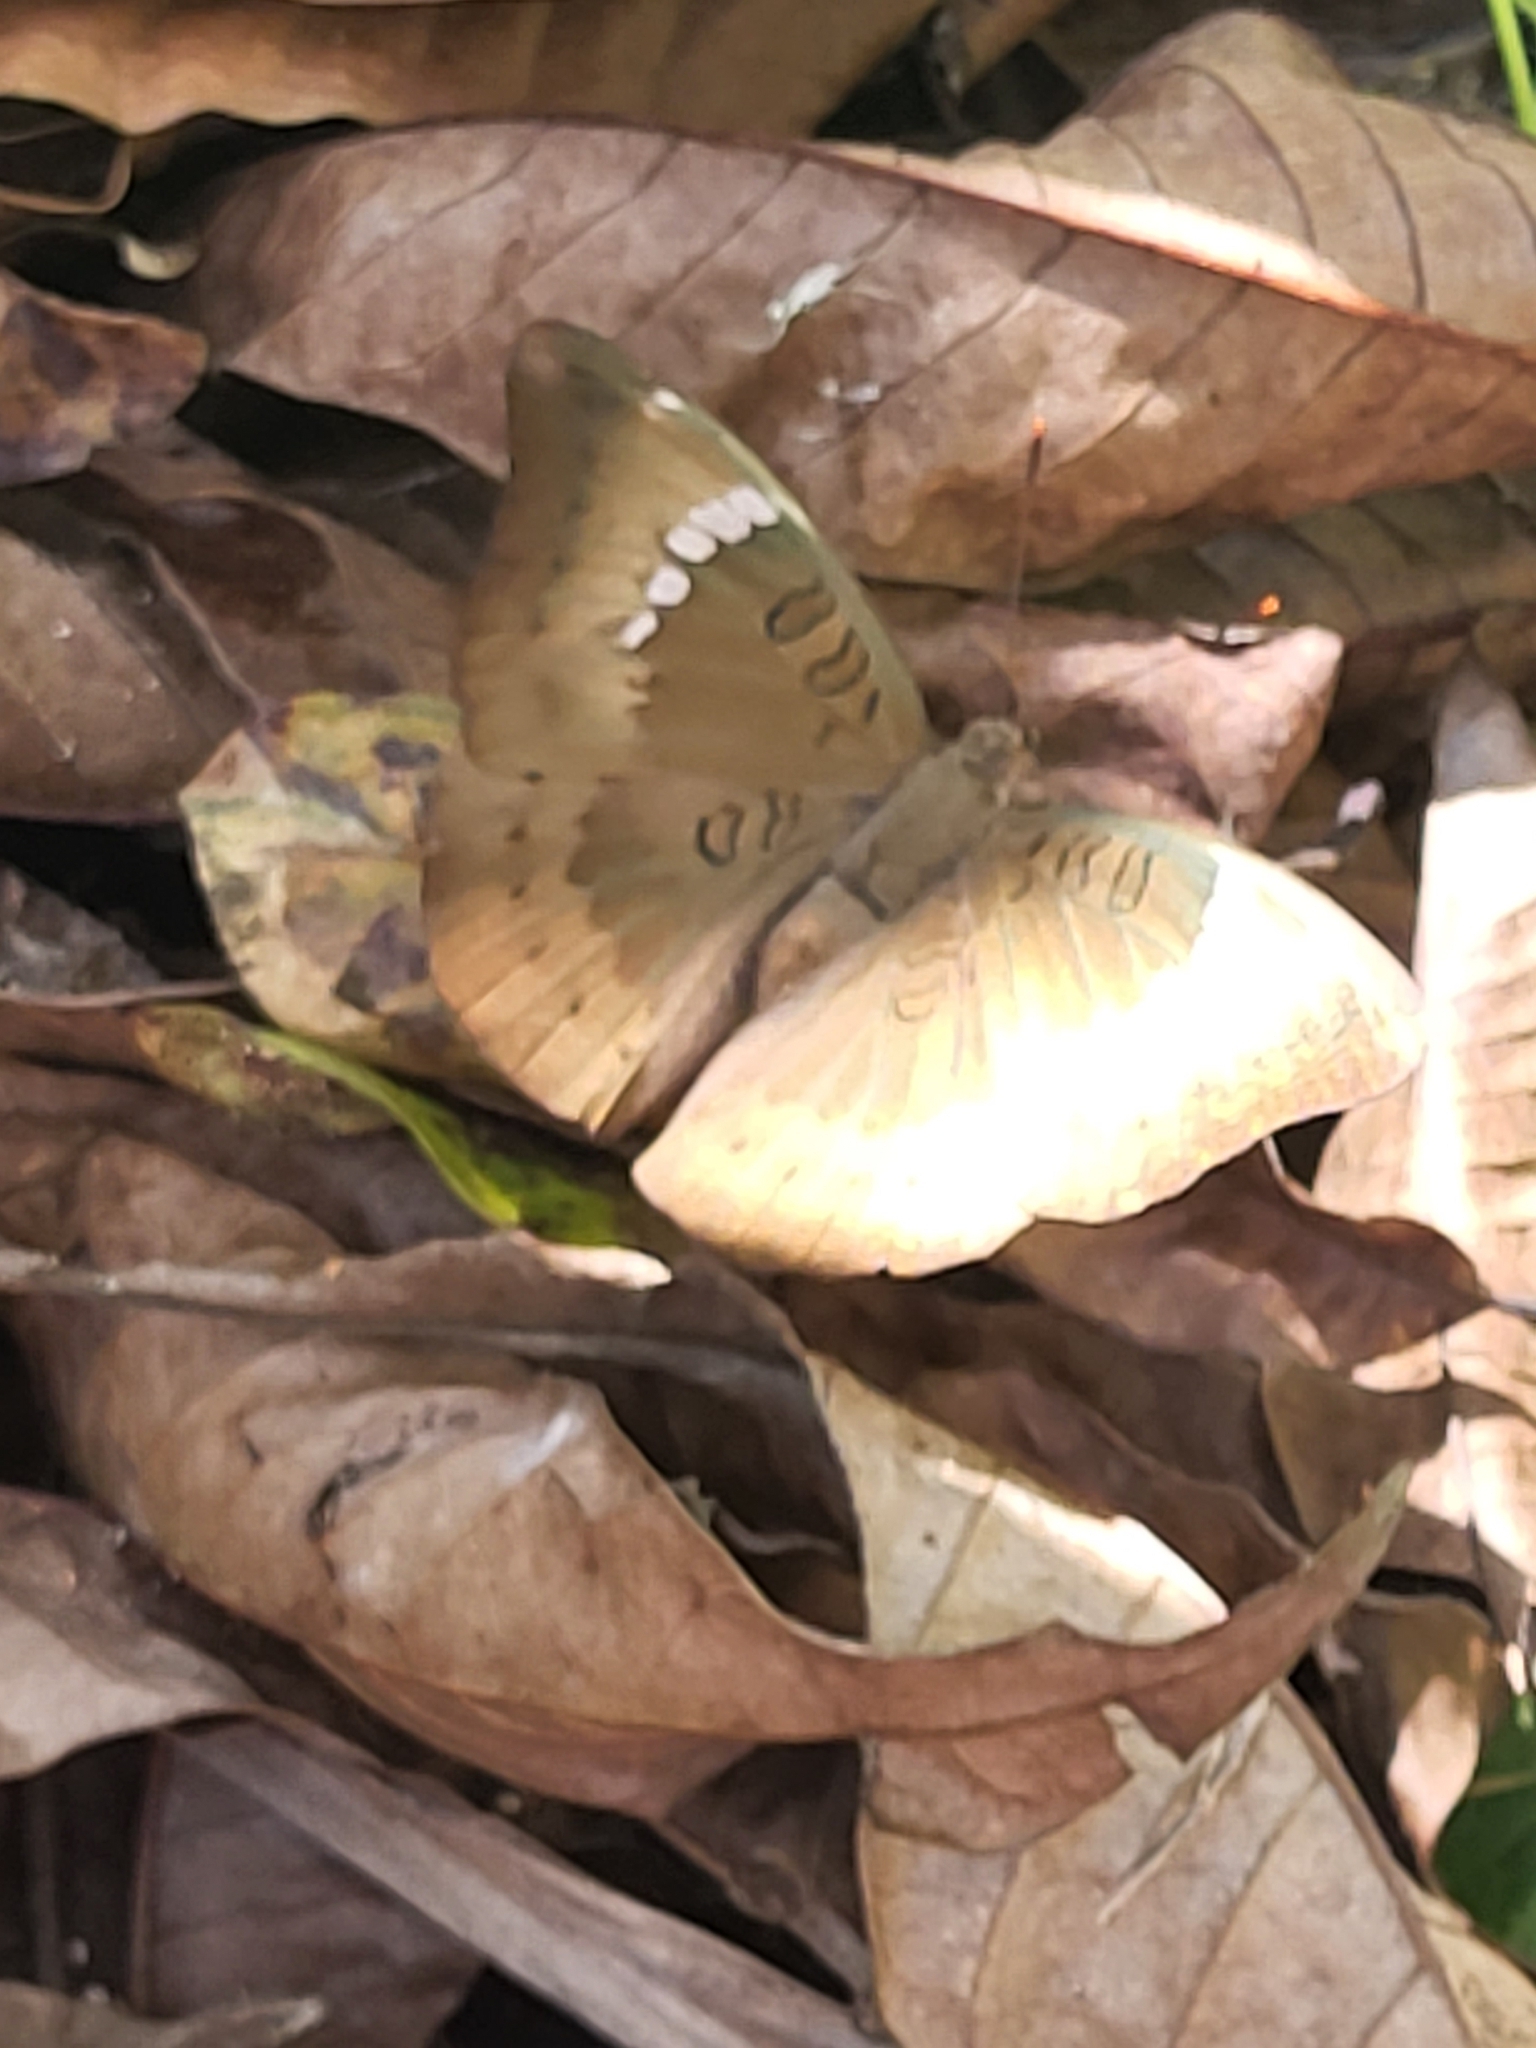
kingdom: Animalia
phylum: Arthropoda
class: Insecta
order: Lepidoptera
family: Nymphalidae
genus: Euthalia
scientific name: Euthalia aconthea
